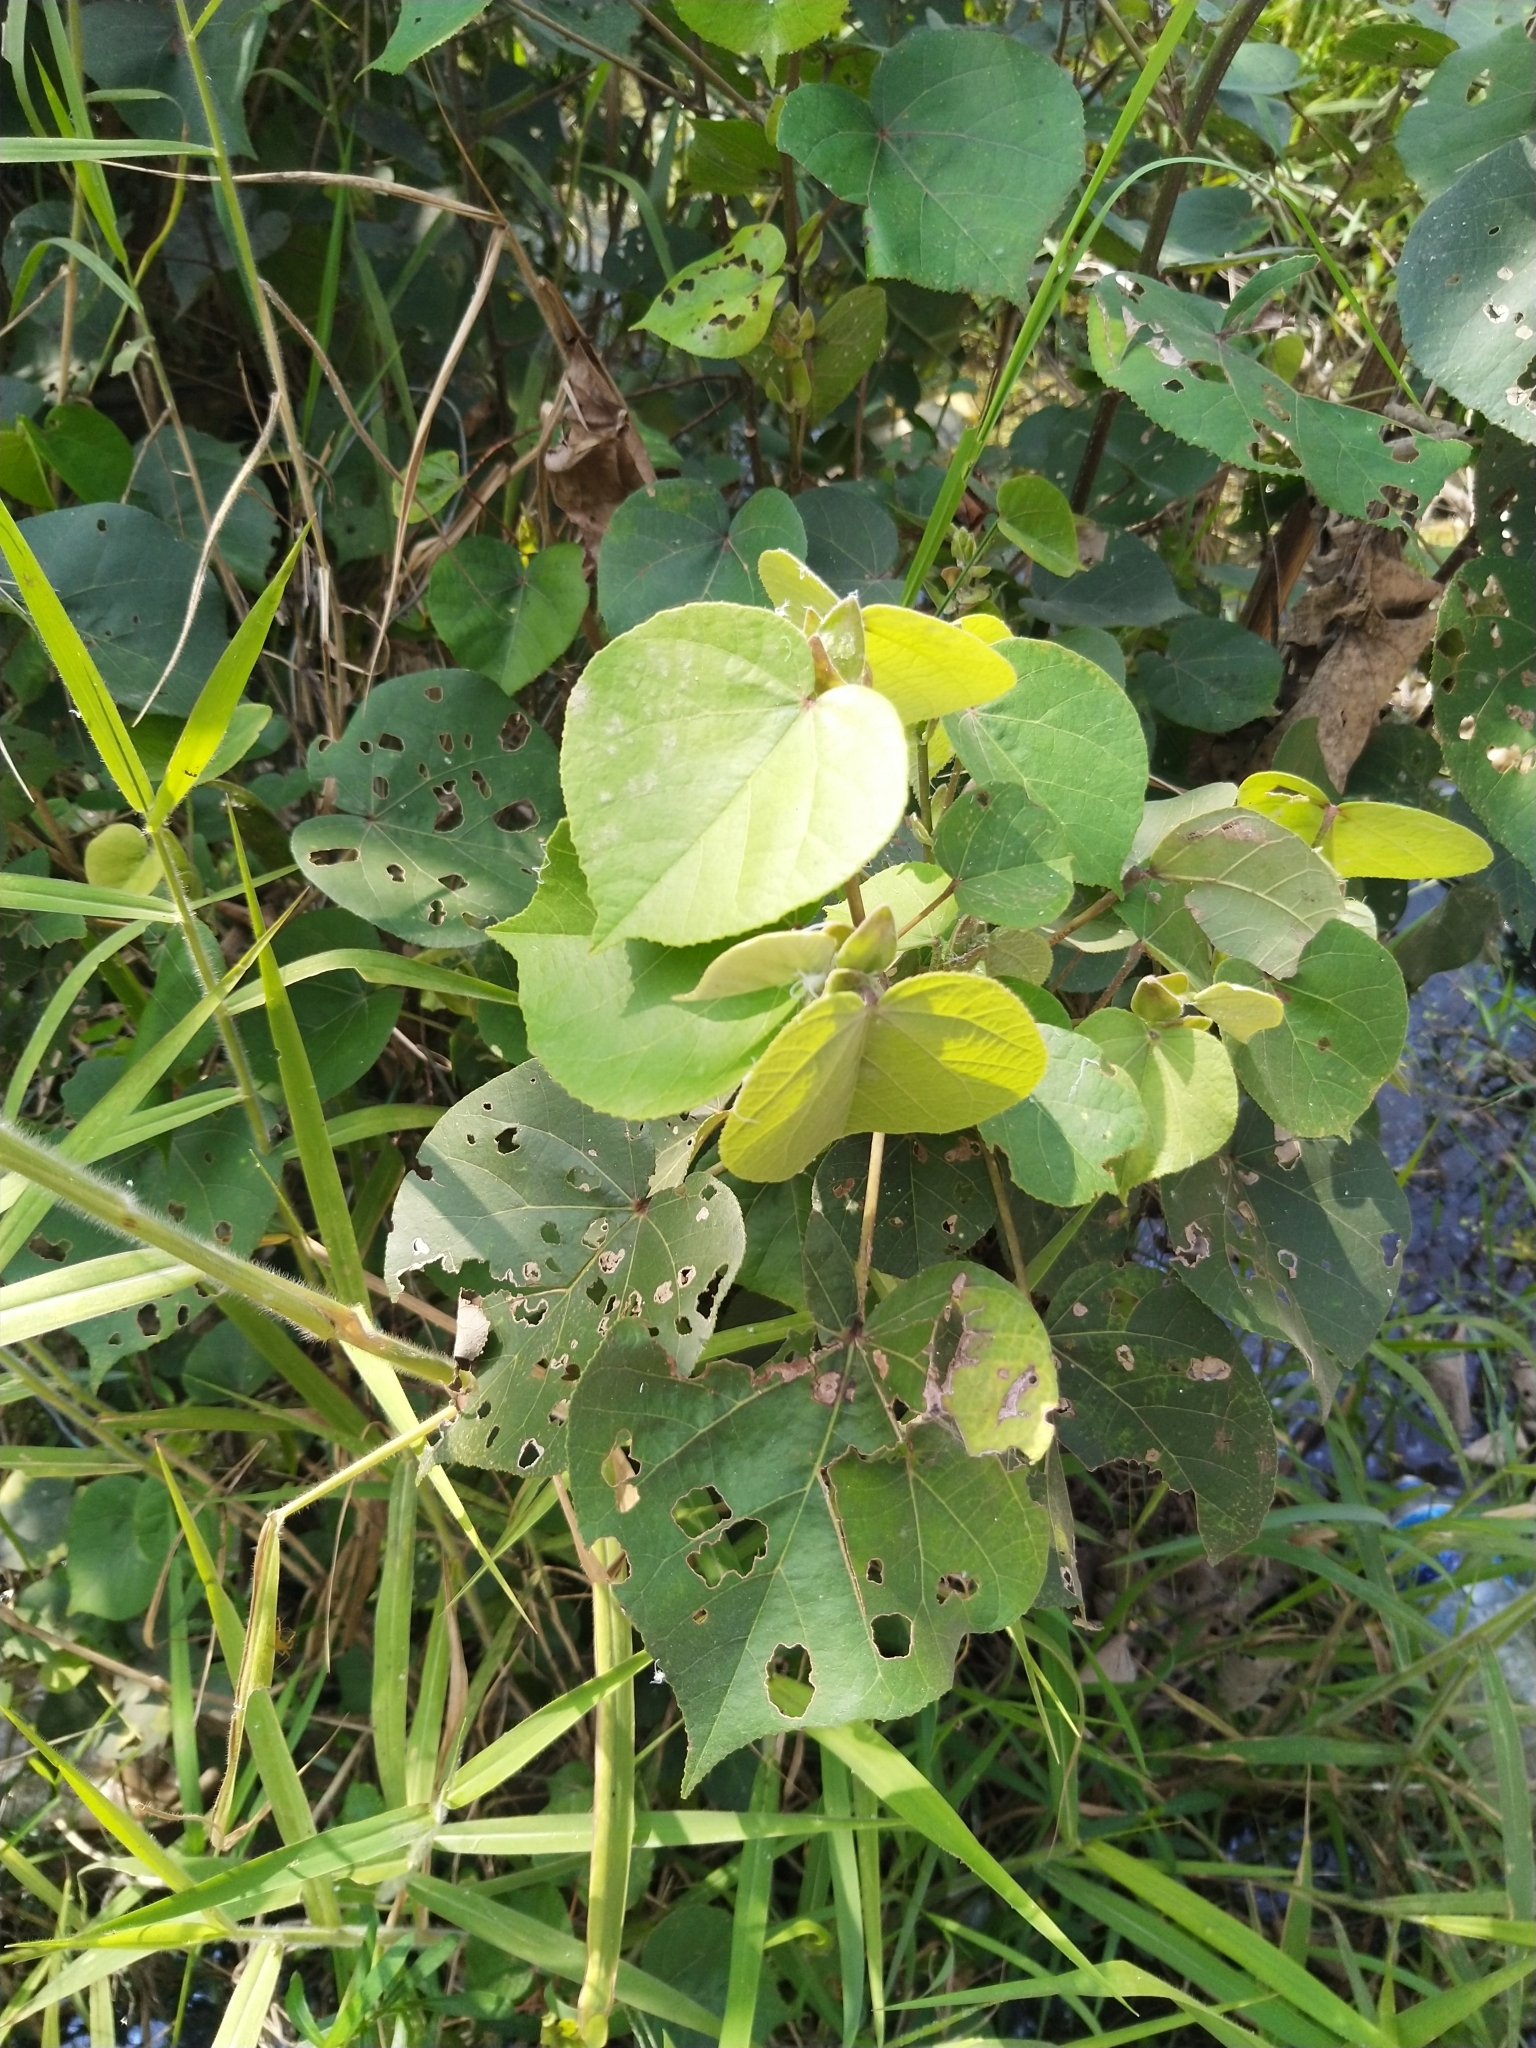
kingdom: Plantae
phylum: Tracheophyta
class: Magnoliopsida
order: Malvales
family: Malvaceae
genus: Talipariti
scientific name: Talipariti tiliaceum
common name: Sea hibiscus
